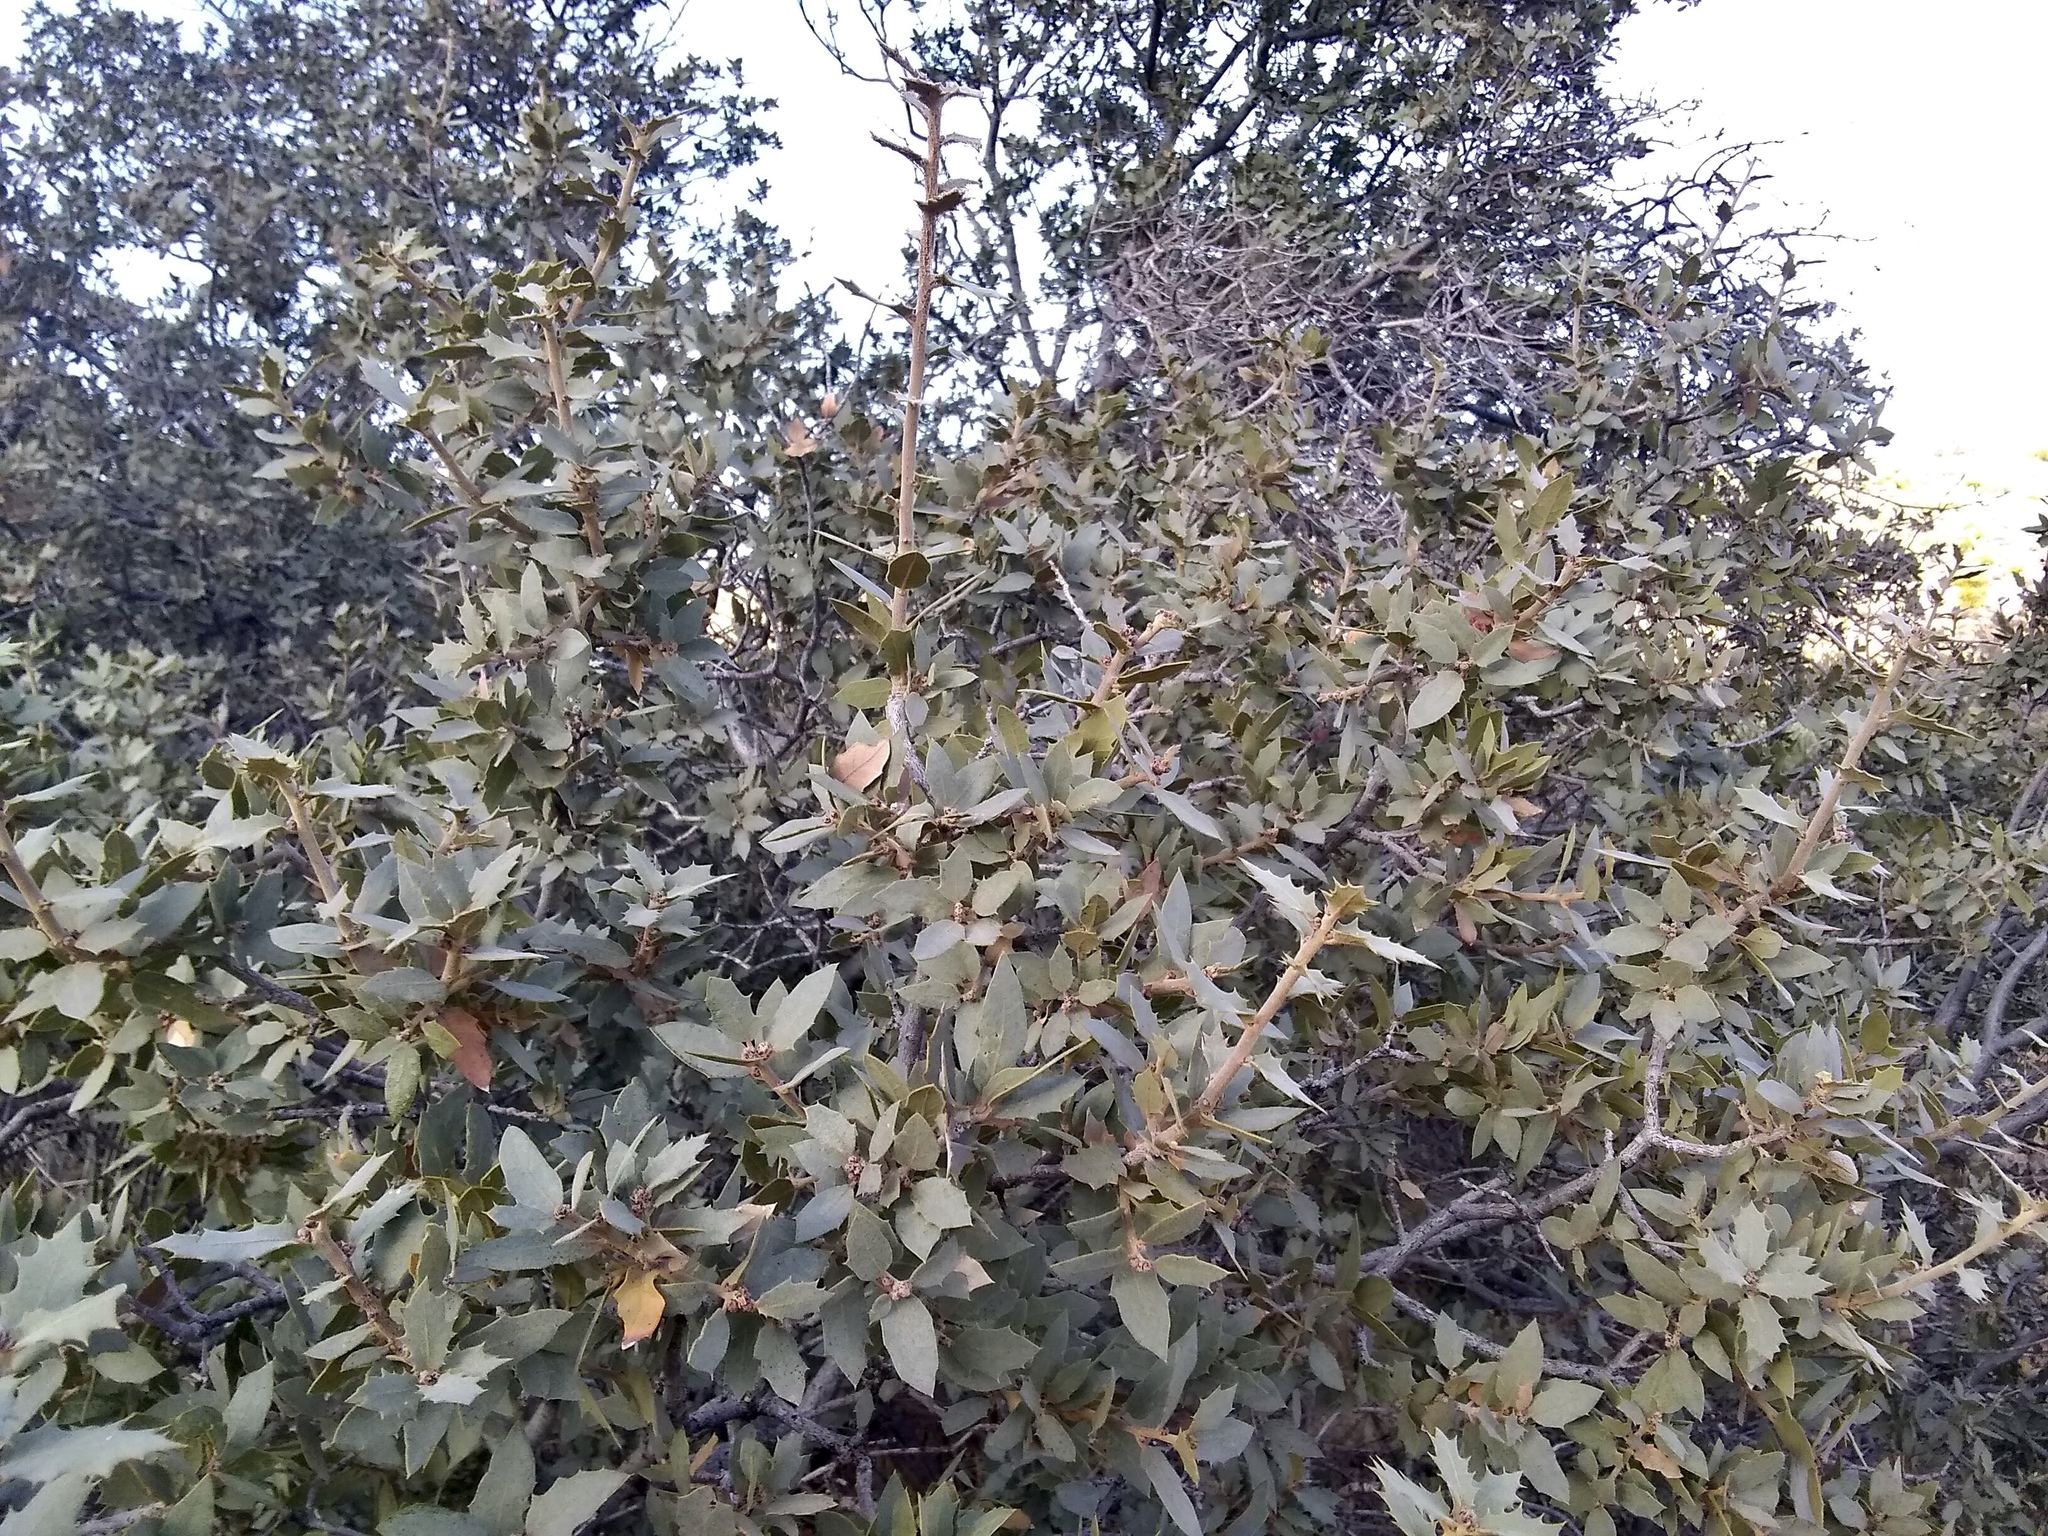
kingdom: Plantae
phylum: Tracheophyta
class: Magnoliopsida
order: Fagales
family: Fagaceae
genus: Quercus
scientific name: Quercus turbinella
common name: Sonoran scrub oak
